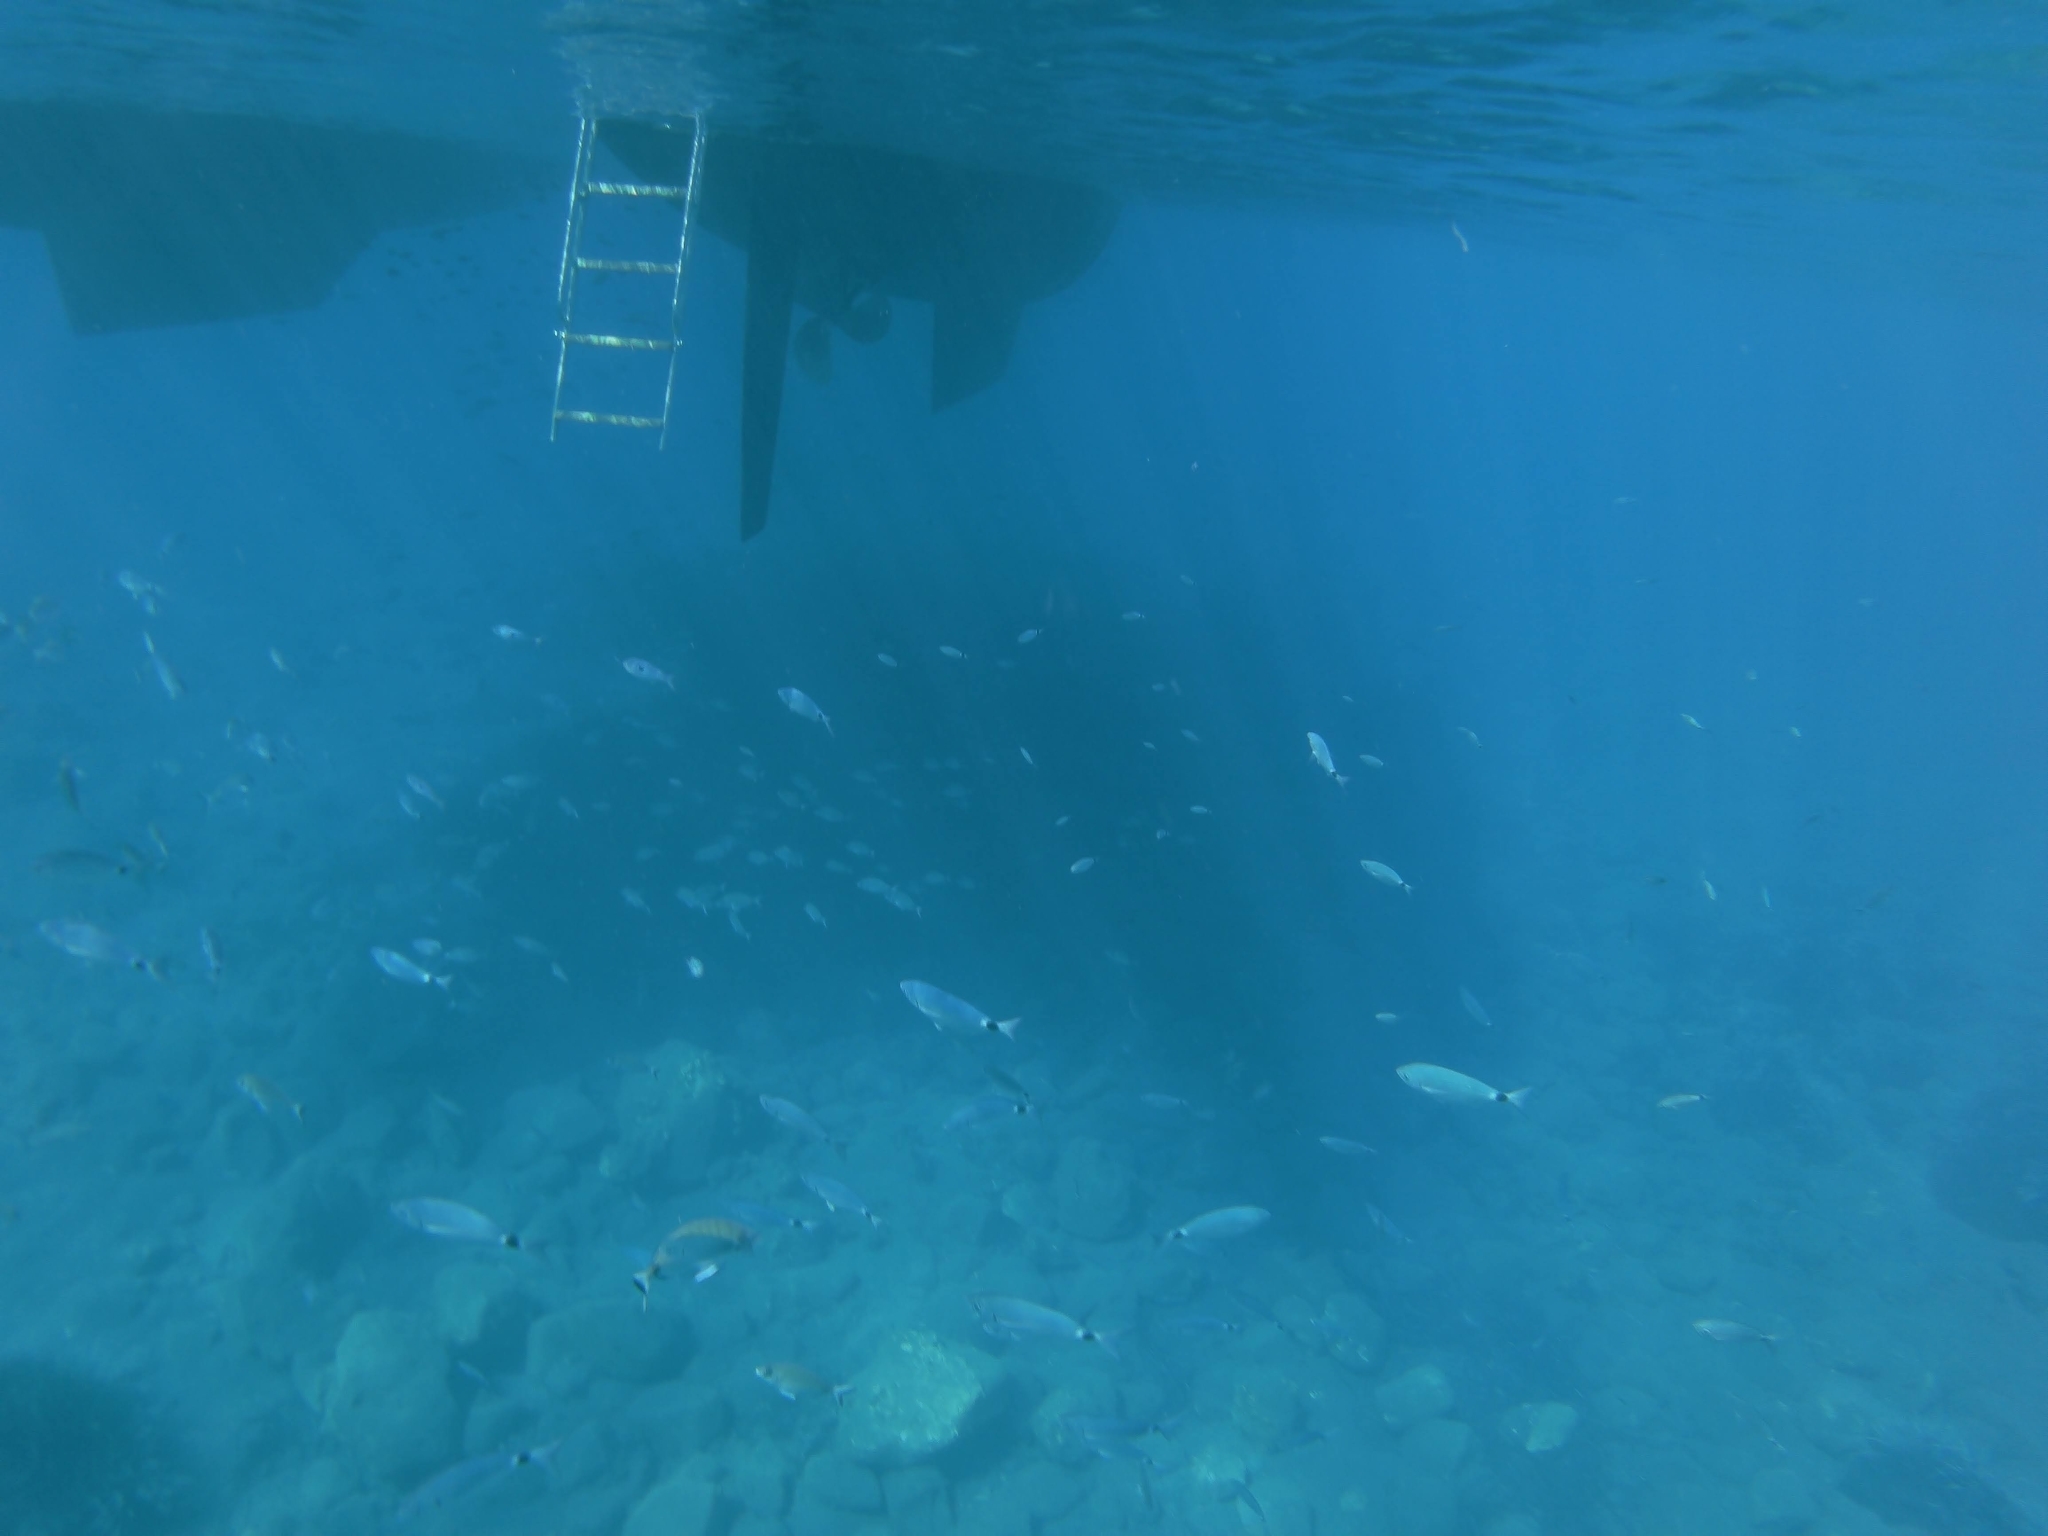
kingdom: Animalia
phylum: Chordata
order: Perciformes
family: Sparidae
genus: Oblada
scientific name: Oblada melanura
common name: Saddled seabream
